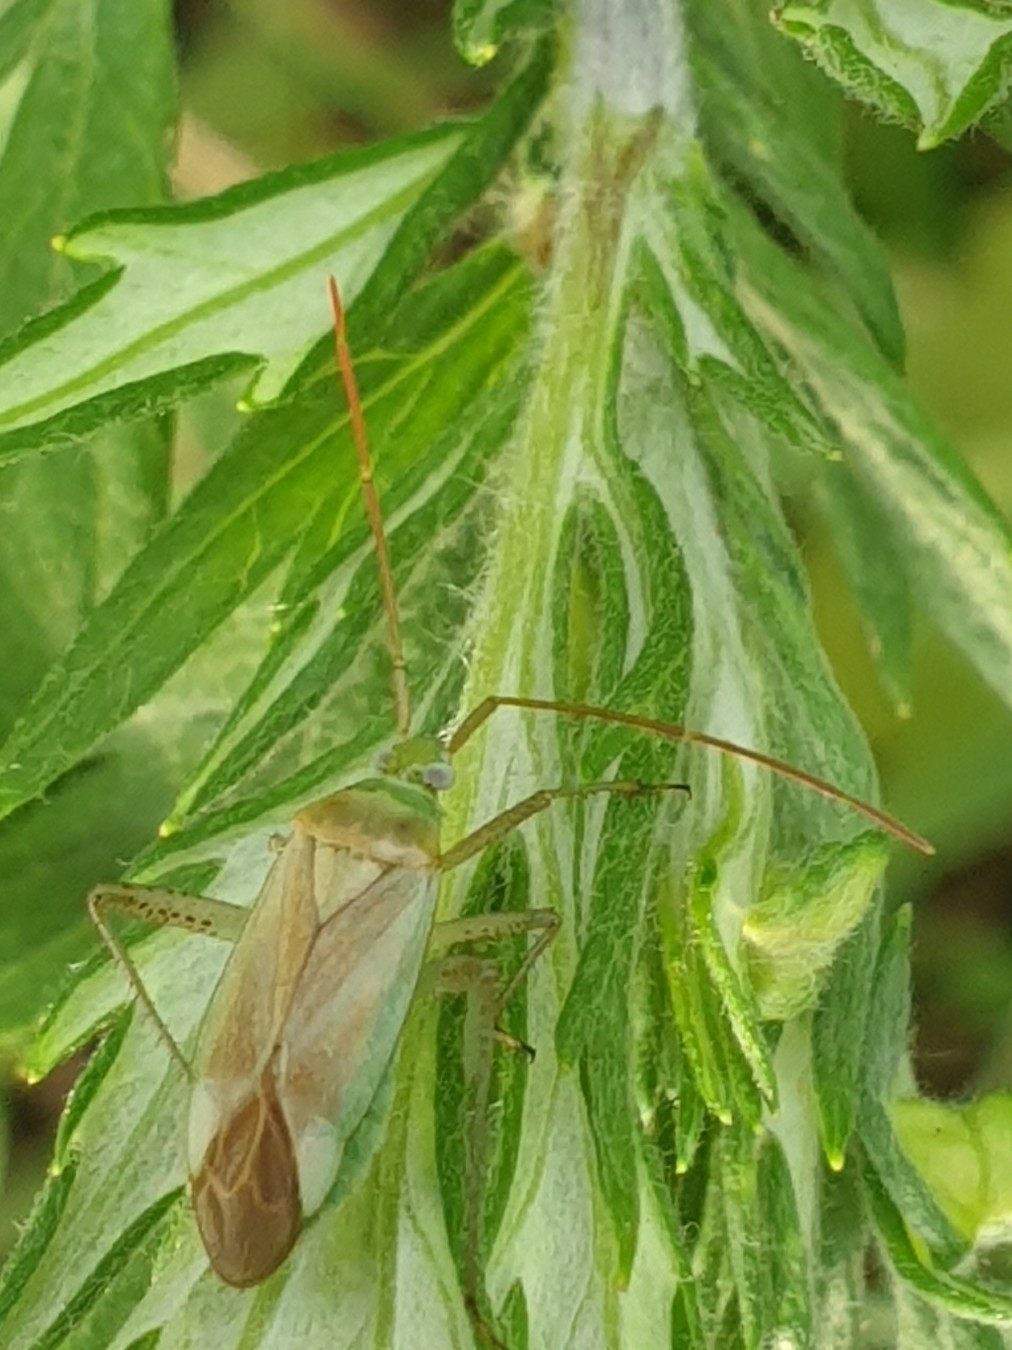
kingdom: Animalia
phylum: Arthropoda
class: Insecta
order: Hemiptera
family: Miridae
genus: Adelphocoris
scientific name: Adelphocoris lineolatus
